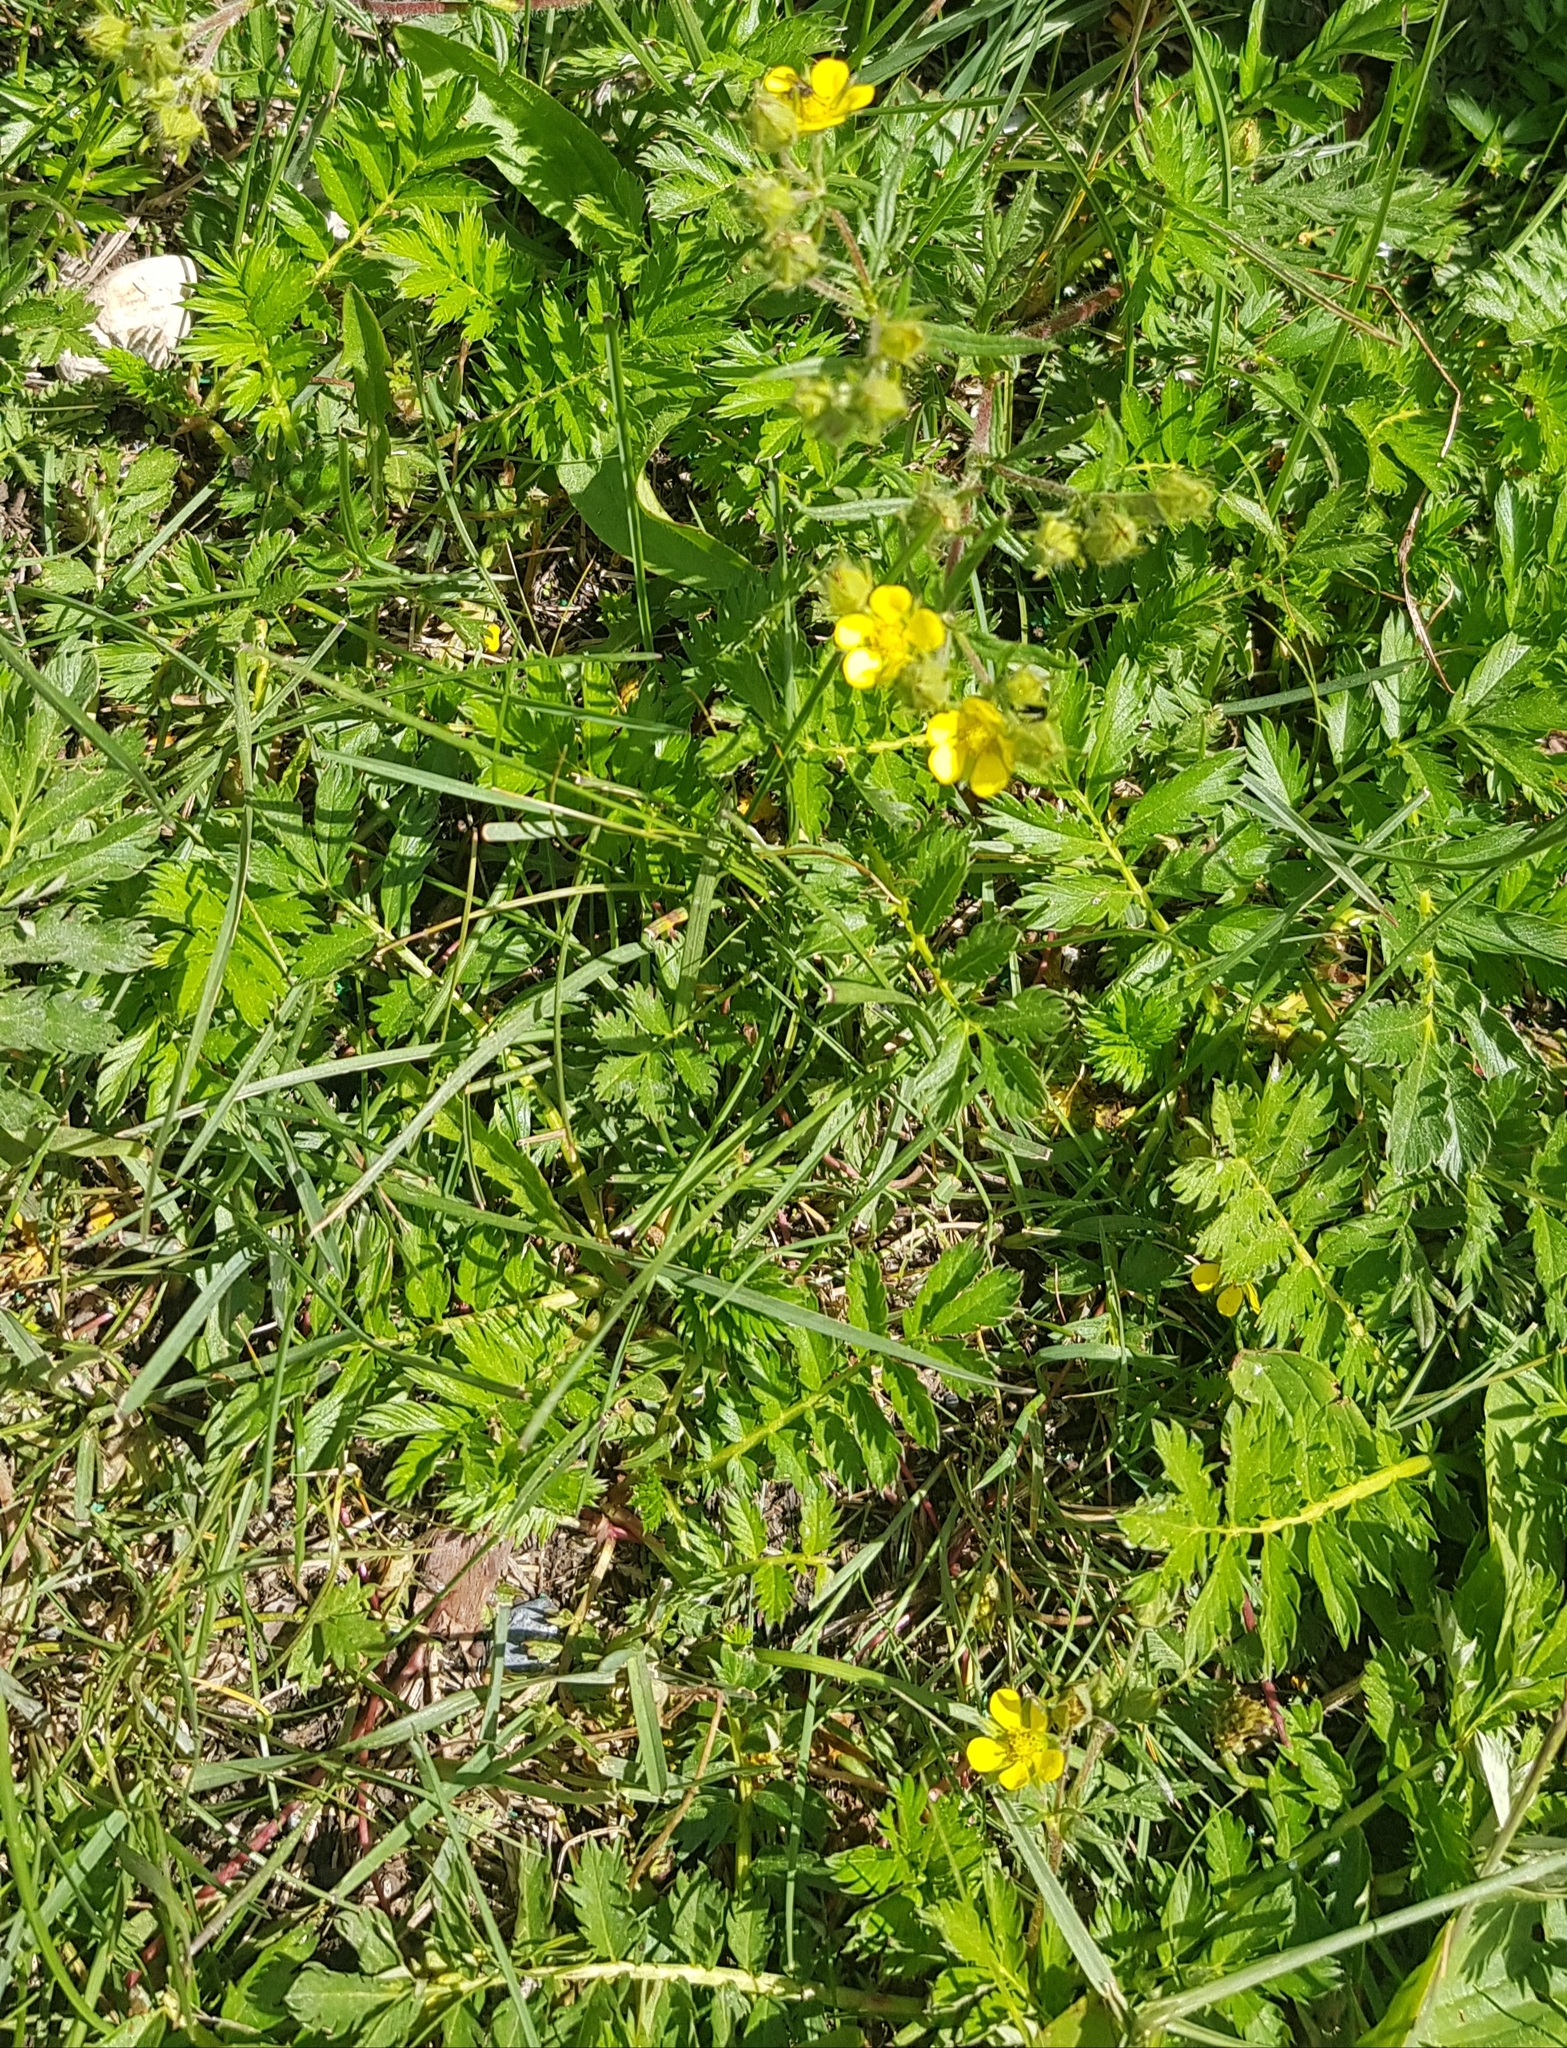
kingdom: Plantae
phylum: Tracheophyta
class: Magnoliopsida
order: Rosales
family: Rosaceae
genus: Argentina
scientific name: Argentina anserina
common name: Common silverweed
